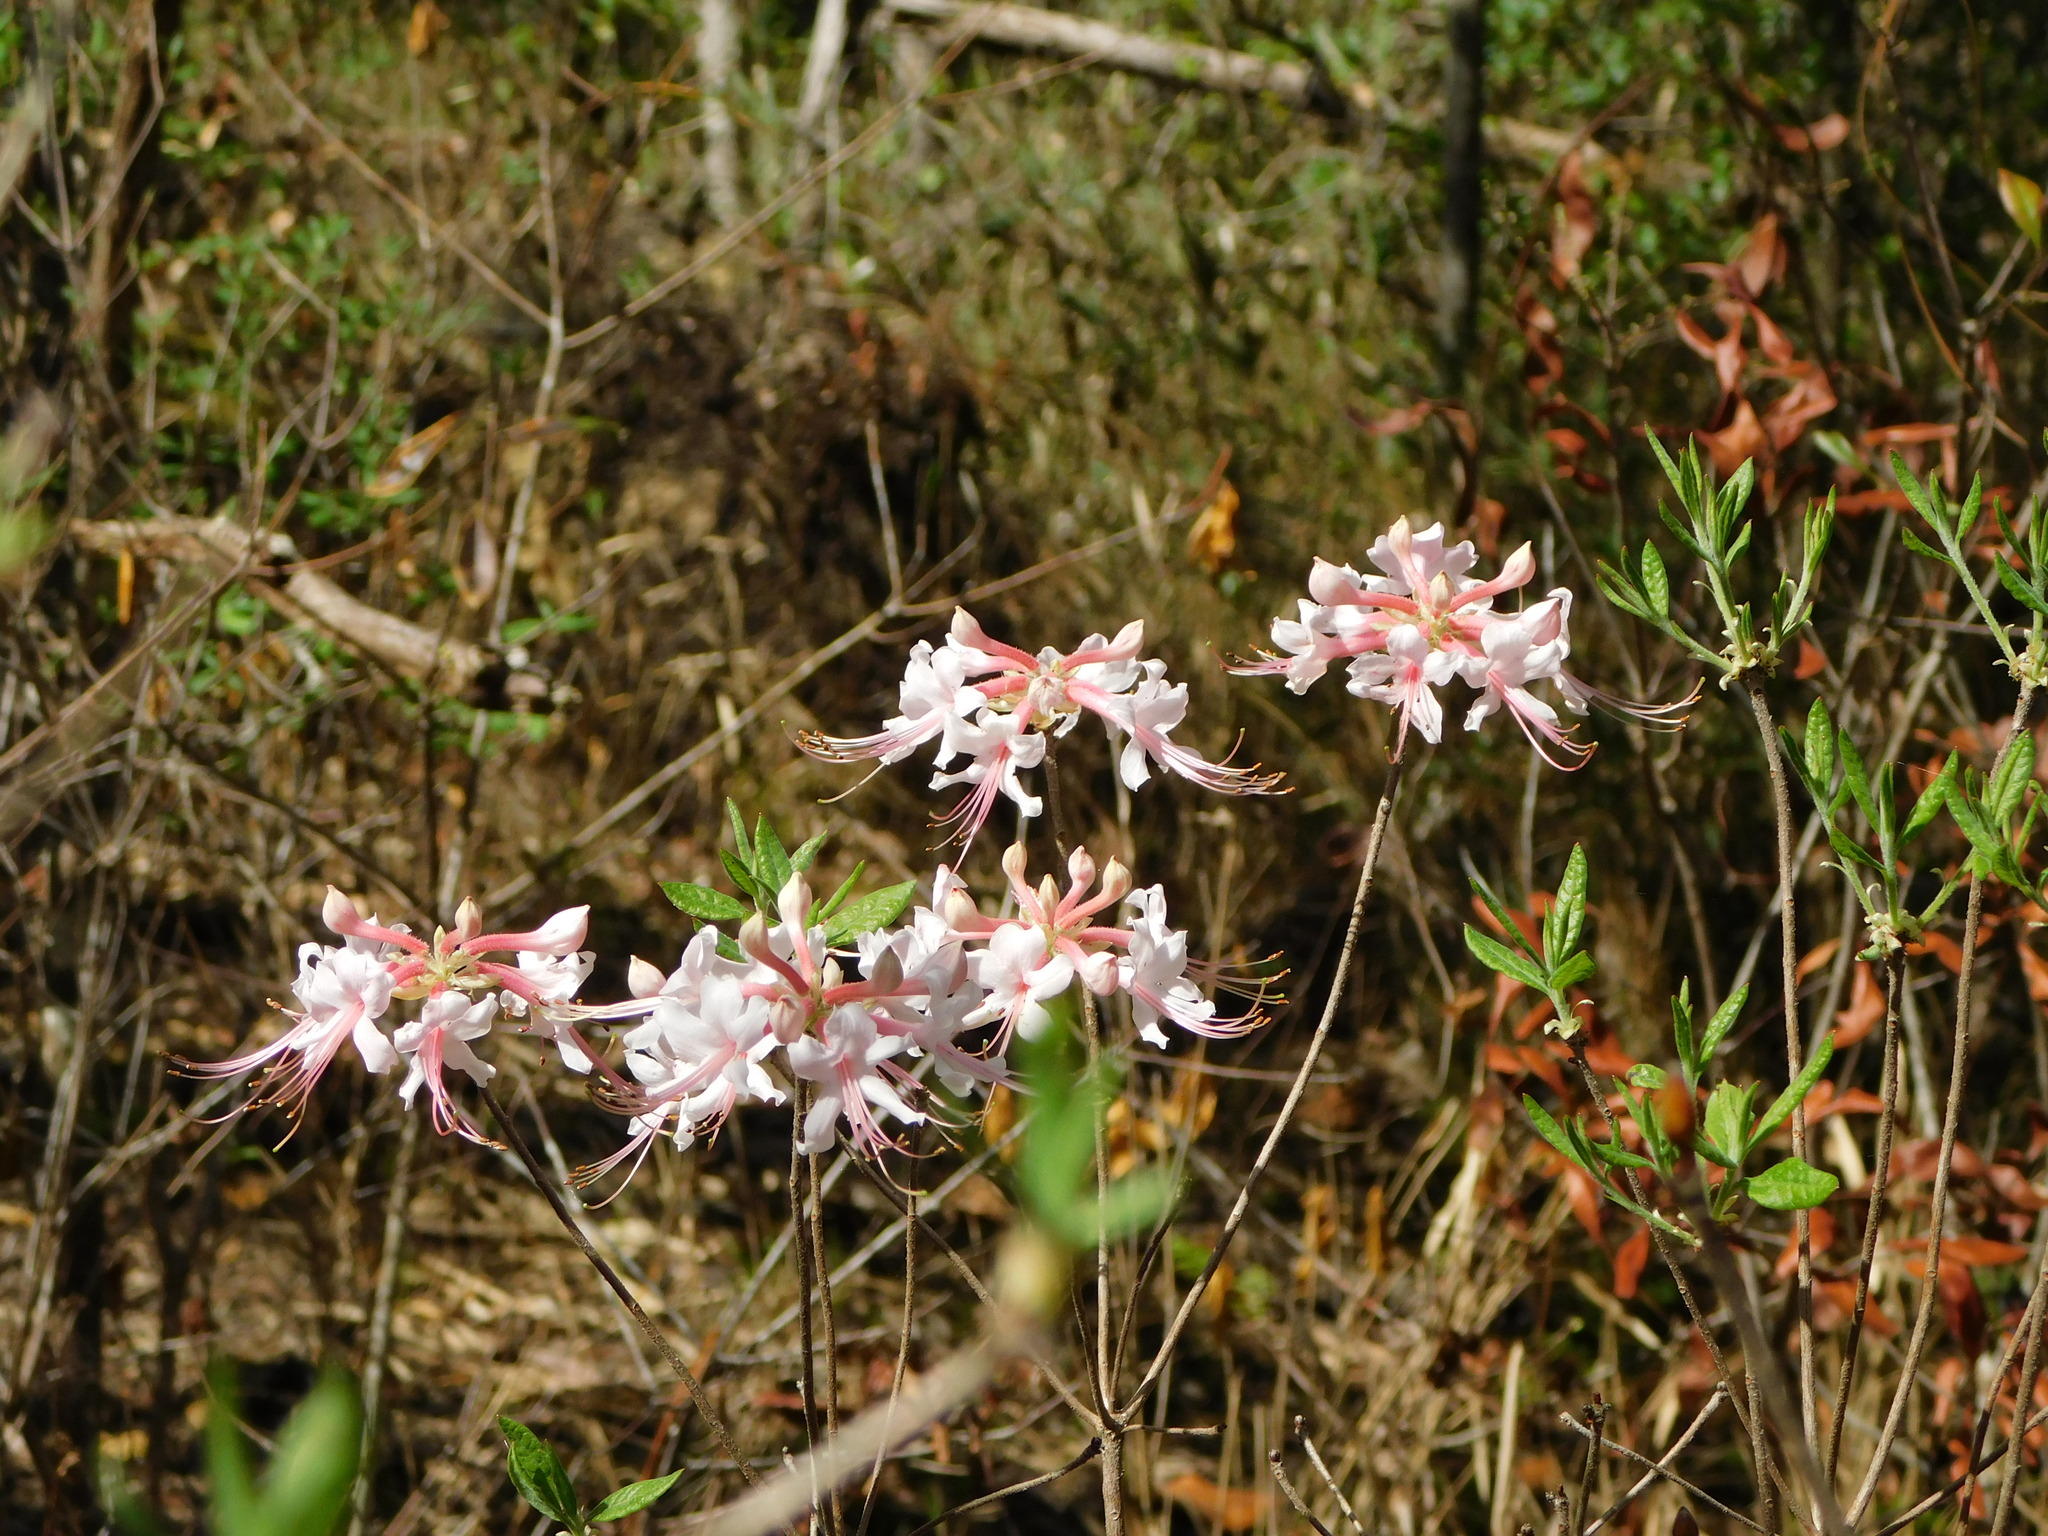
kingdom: Plantae
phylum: Tracheophyta
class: Magnoliopsida
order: Ericales
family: Ericaceae
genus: Rhododendron
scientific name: Rhododendron canescens
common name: Mountain azalea
